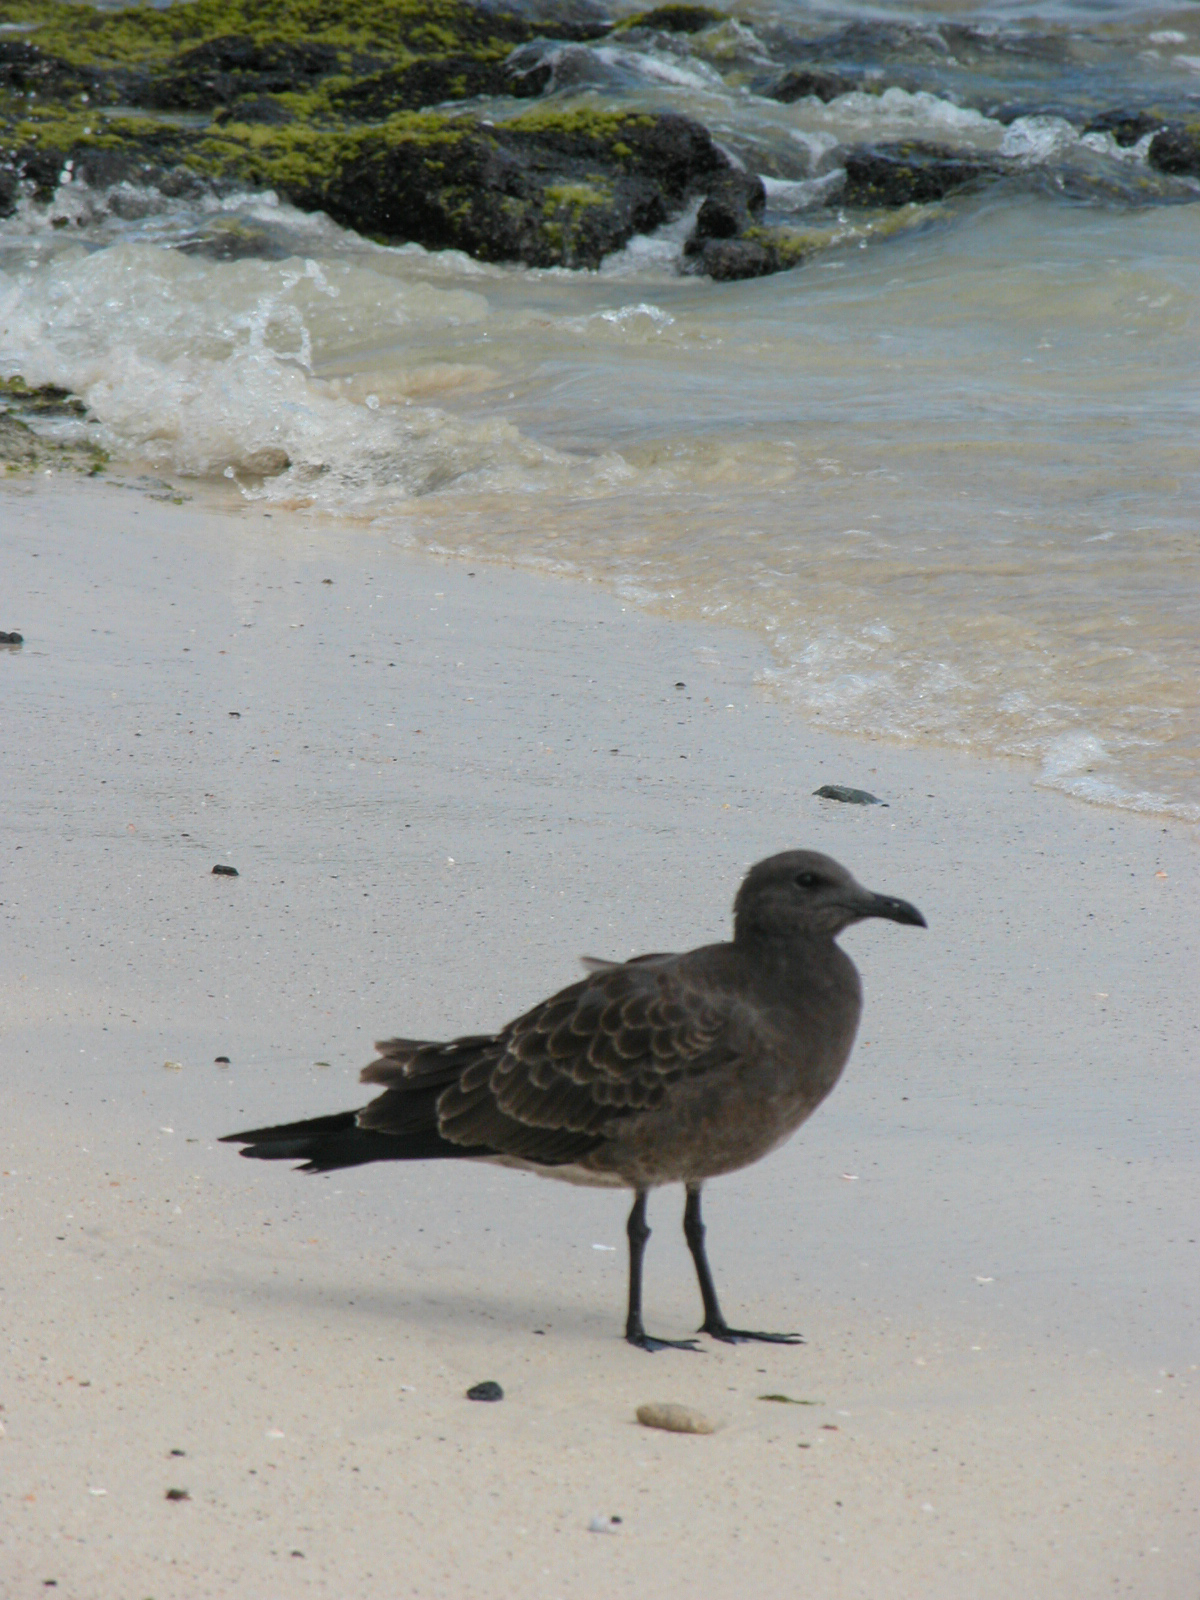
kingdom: Animalia
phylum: Chordata
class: Aves
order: Charadriiformes
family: Laridae
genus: Leucophaeus
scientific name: Leucophaeus fuliginosus
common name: Lava gull
